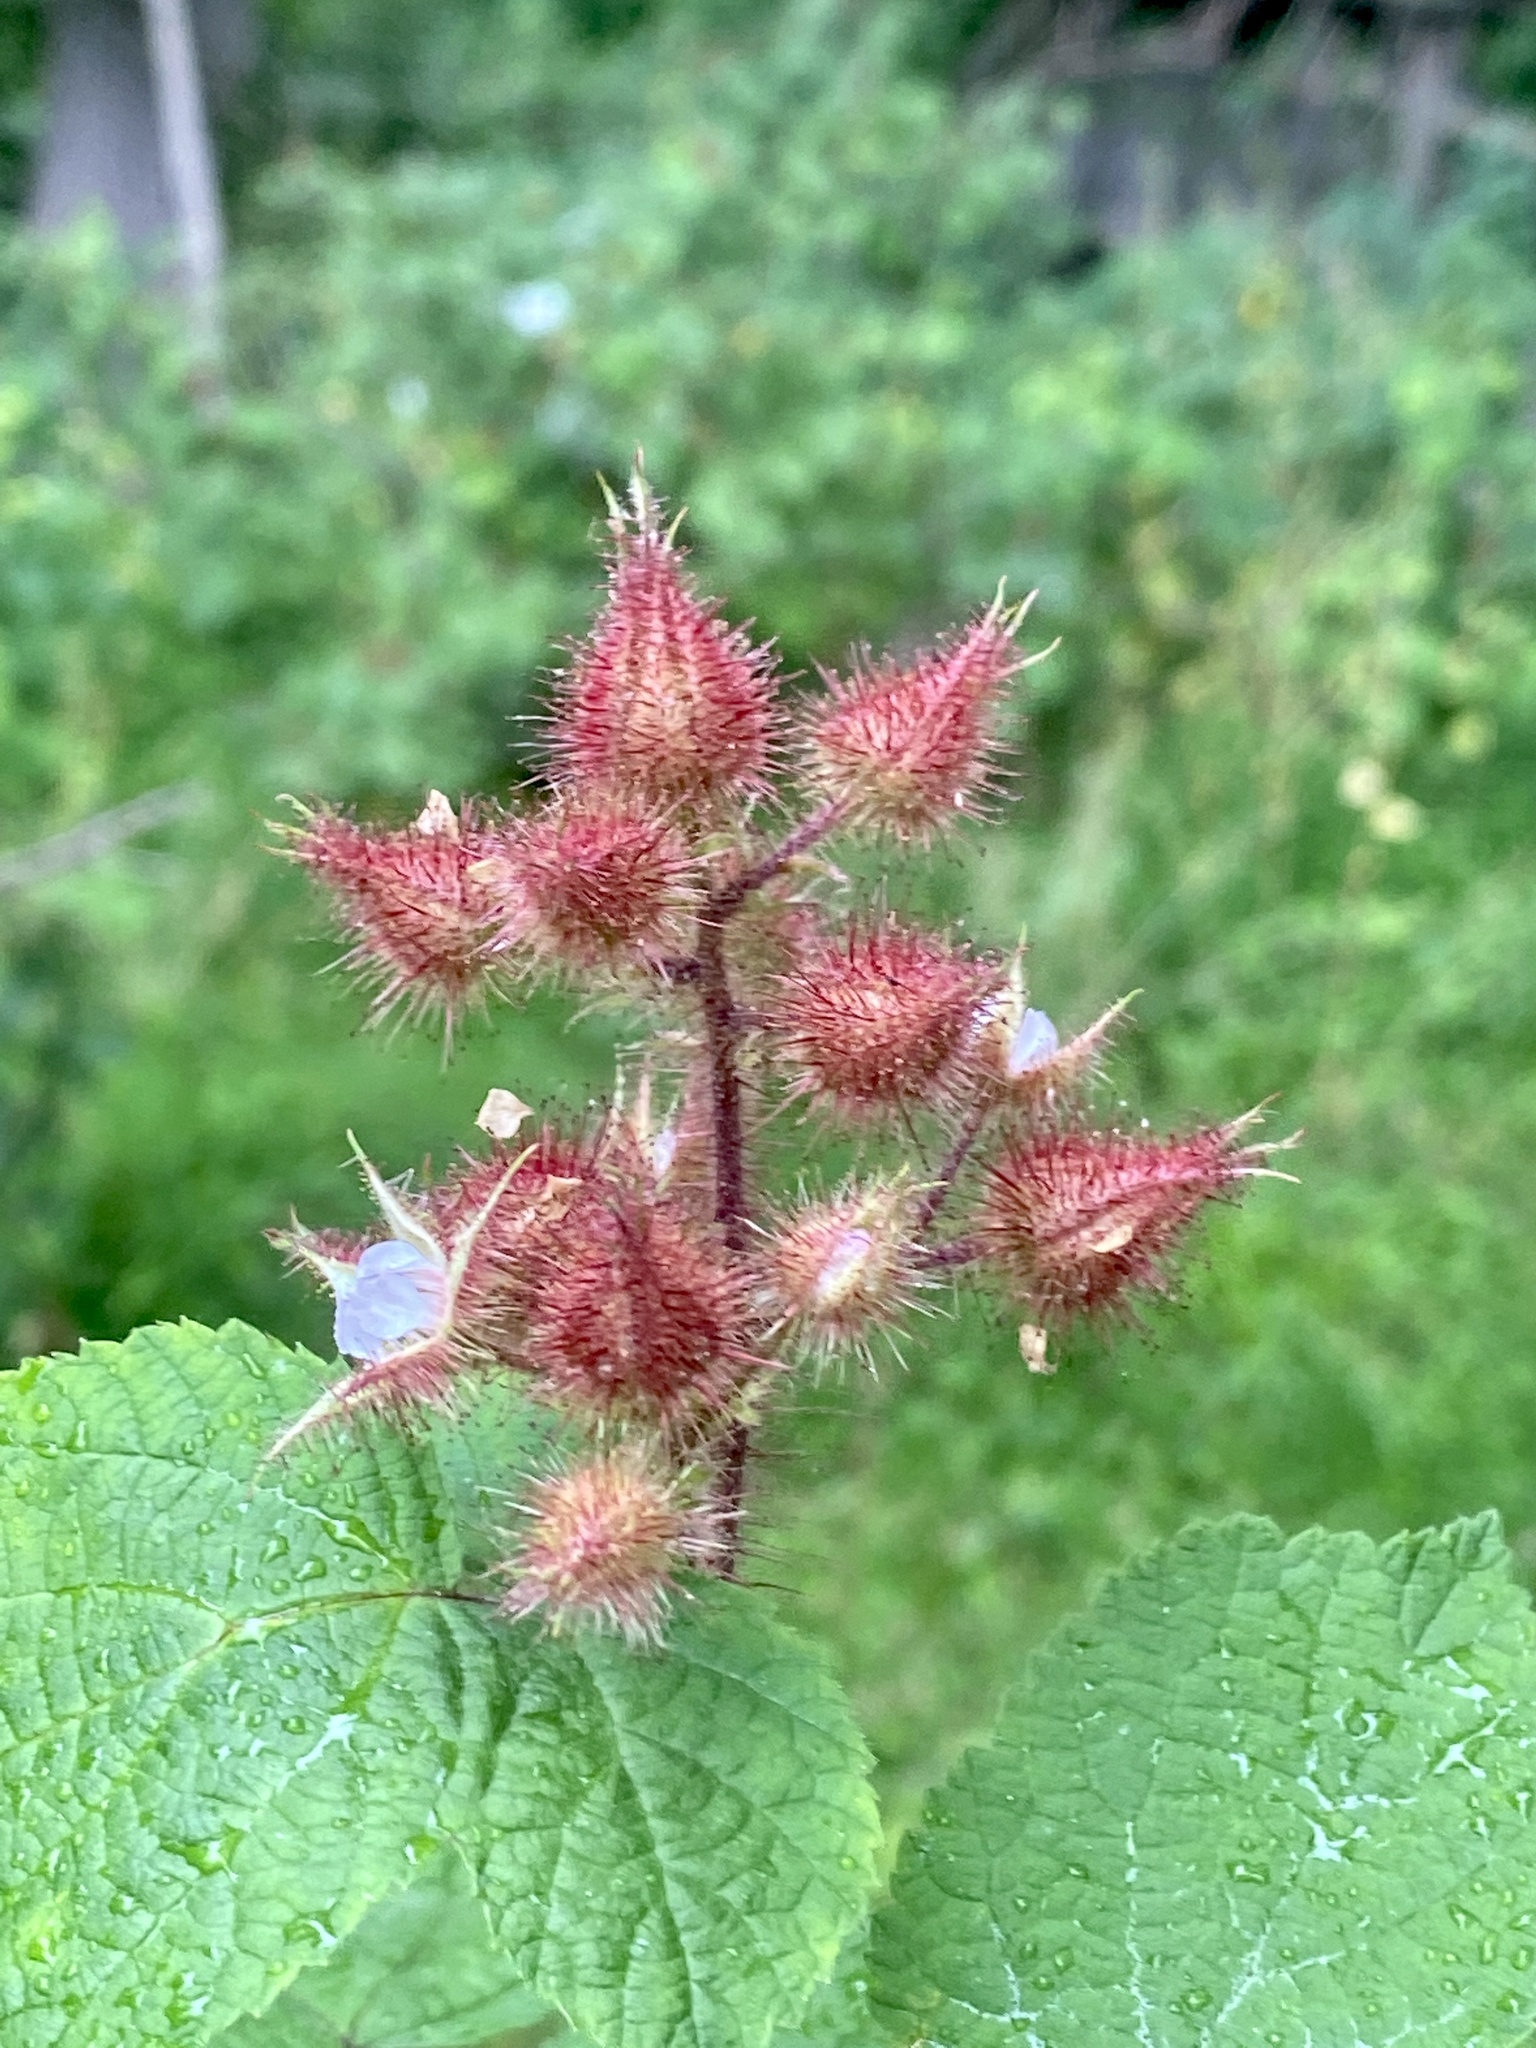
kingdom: Plantae
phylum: Tracheophyta
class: Magnoliopsida
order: Rosales
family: Rosaceae
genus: Rubus
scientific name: Rubus phoenicolasius
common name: Japanese wineberry
